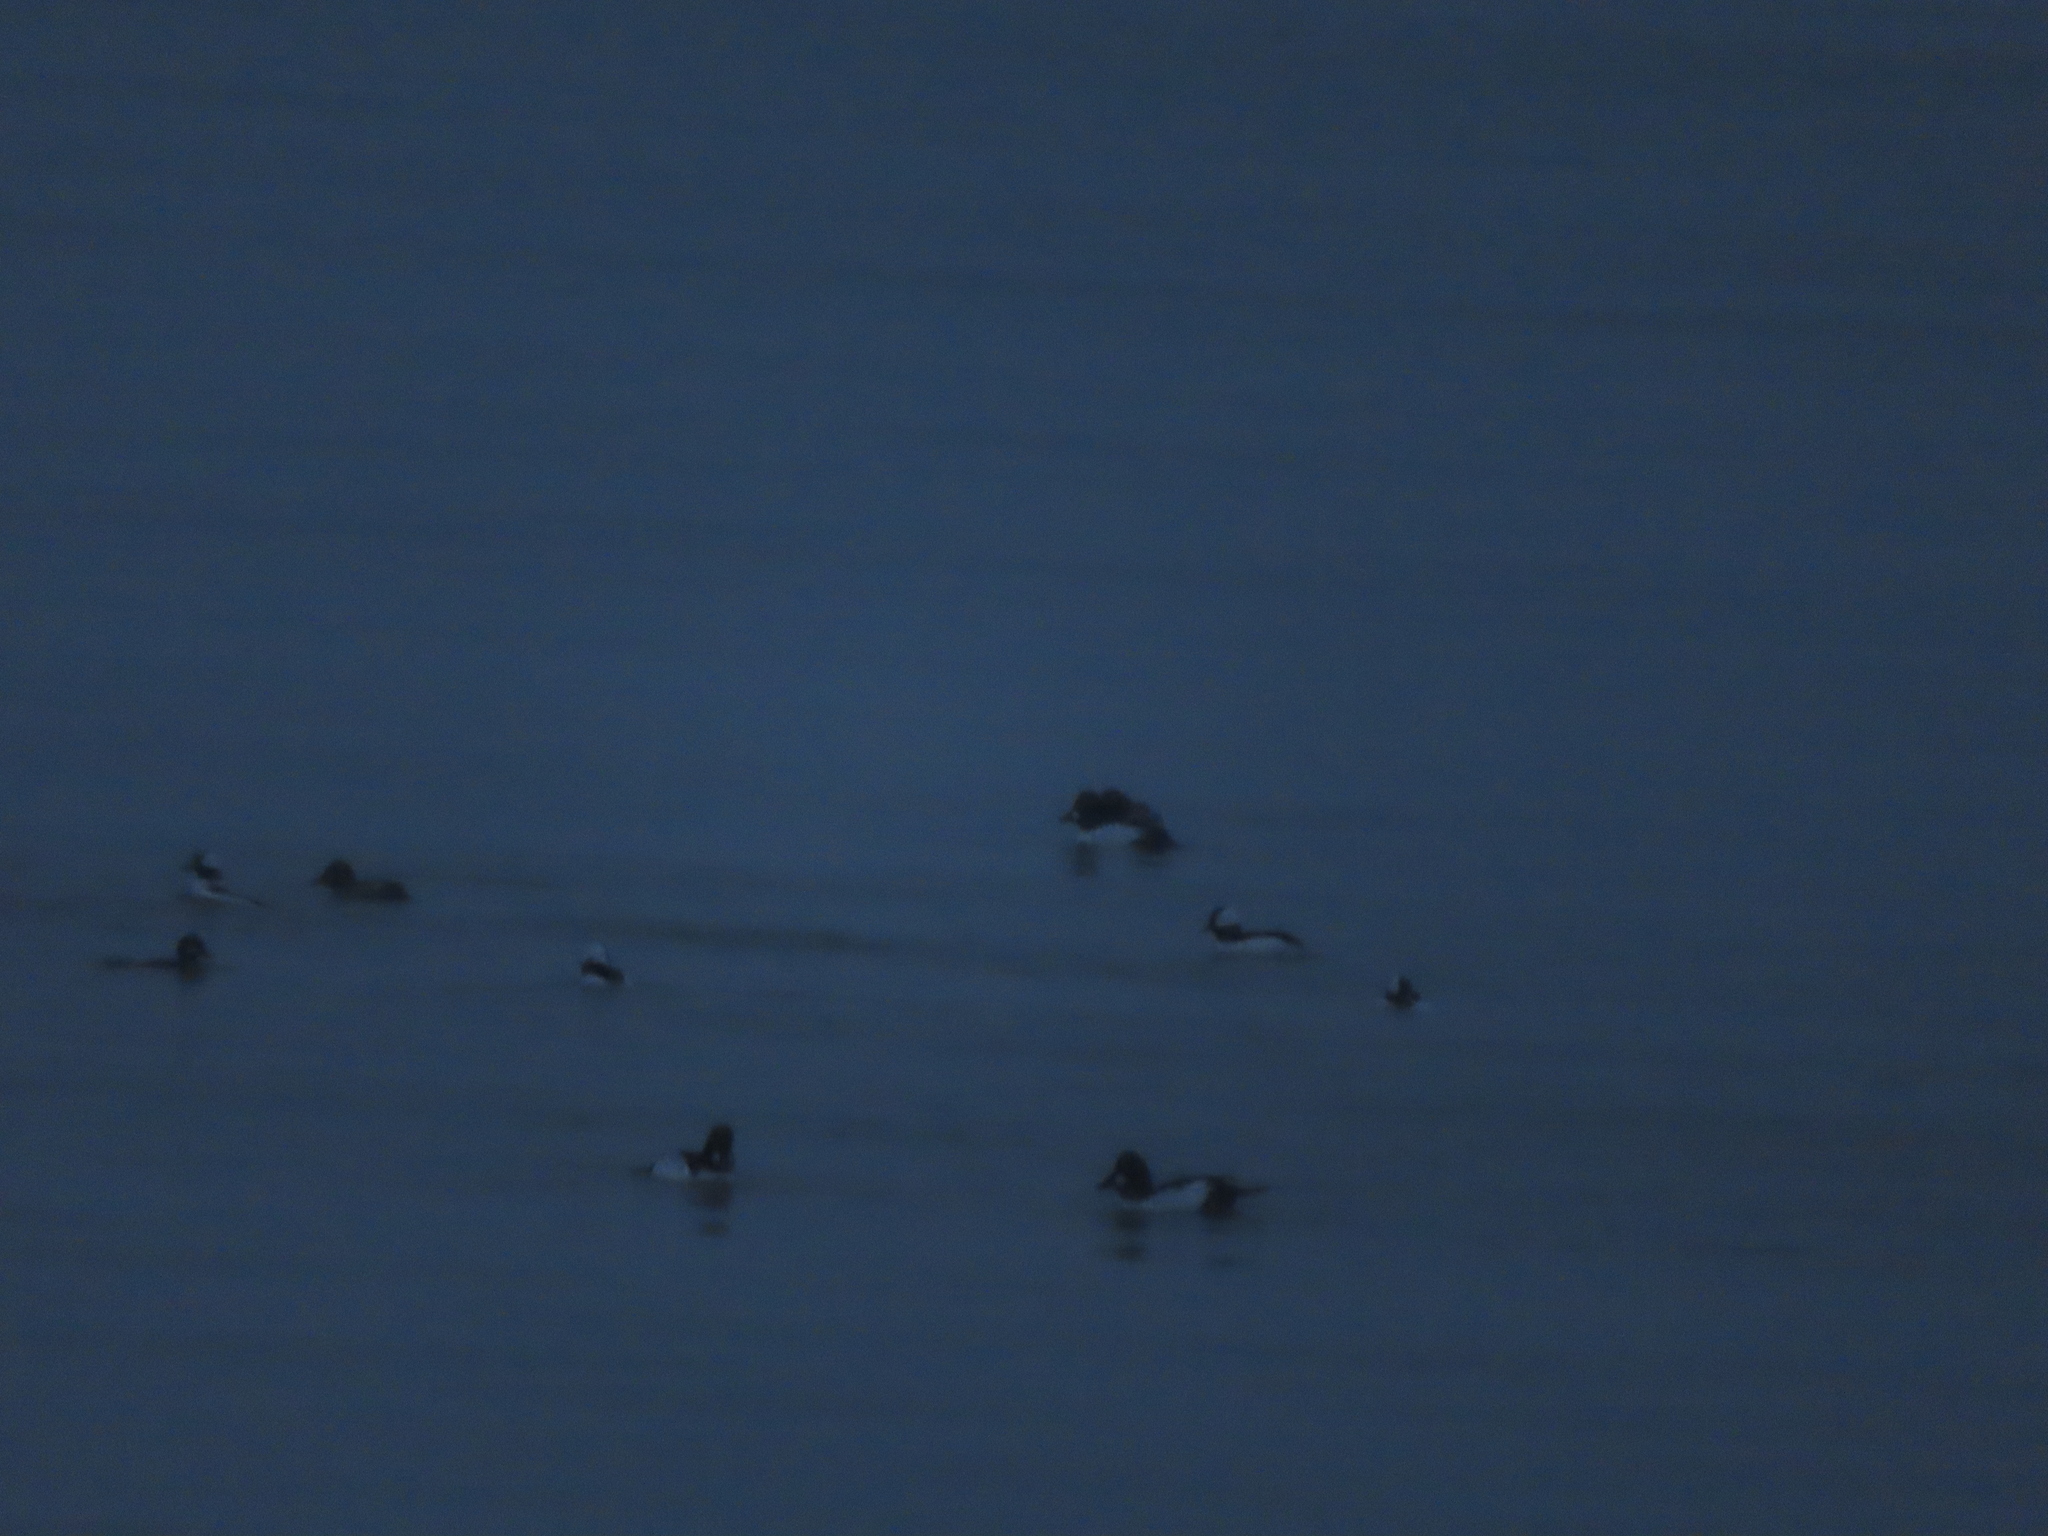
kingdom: Animalia
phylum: Chordata
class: Aves
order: Anseriformes
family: Anatidae
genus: Bucephala
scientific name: Bucephala albeola
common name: Bufflehead
